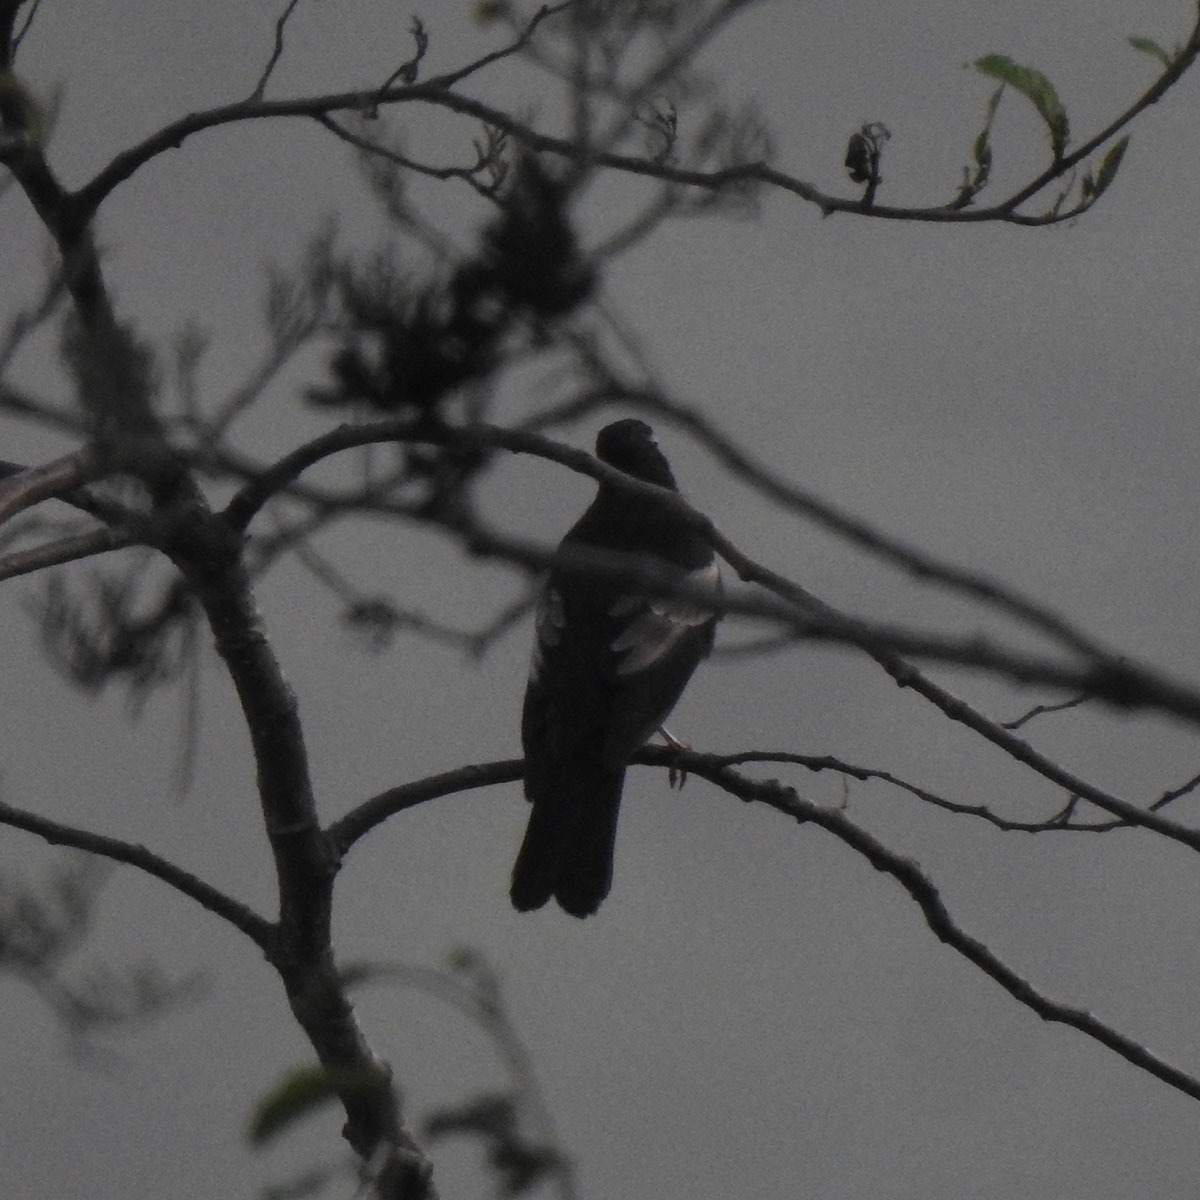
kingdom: Animalia
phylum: Chordata
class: Aves
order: Passeriformes
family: Turdidae
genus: Turdus
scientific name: Turdus boulboul
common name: Grey-winged blackbird
